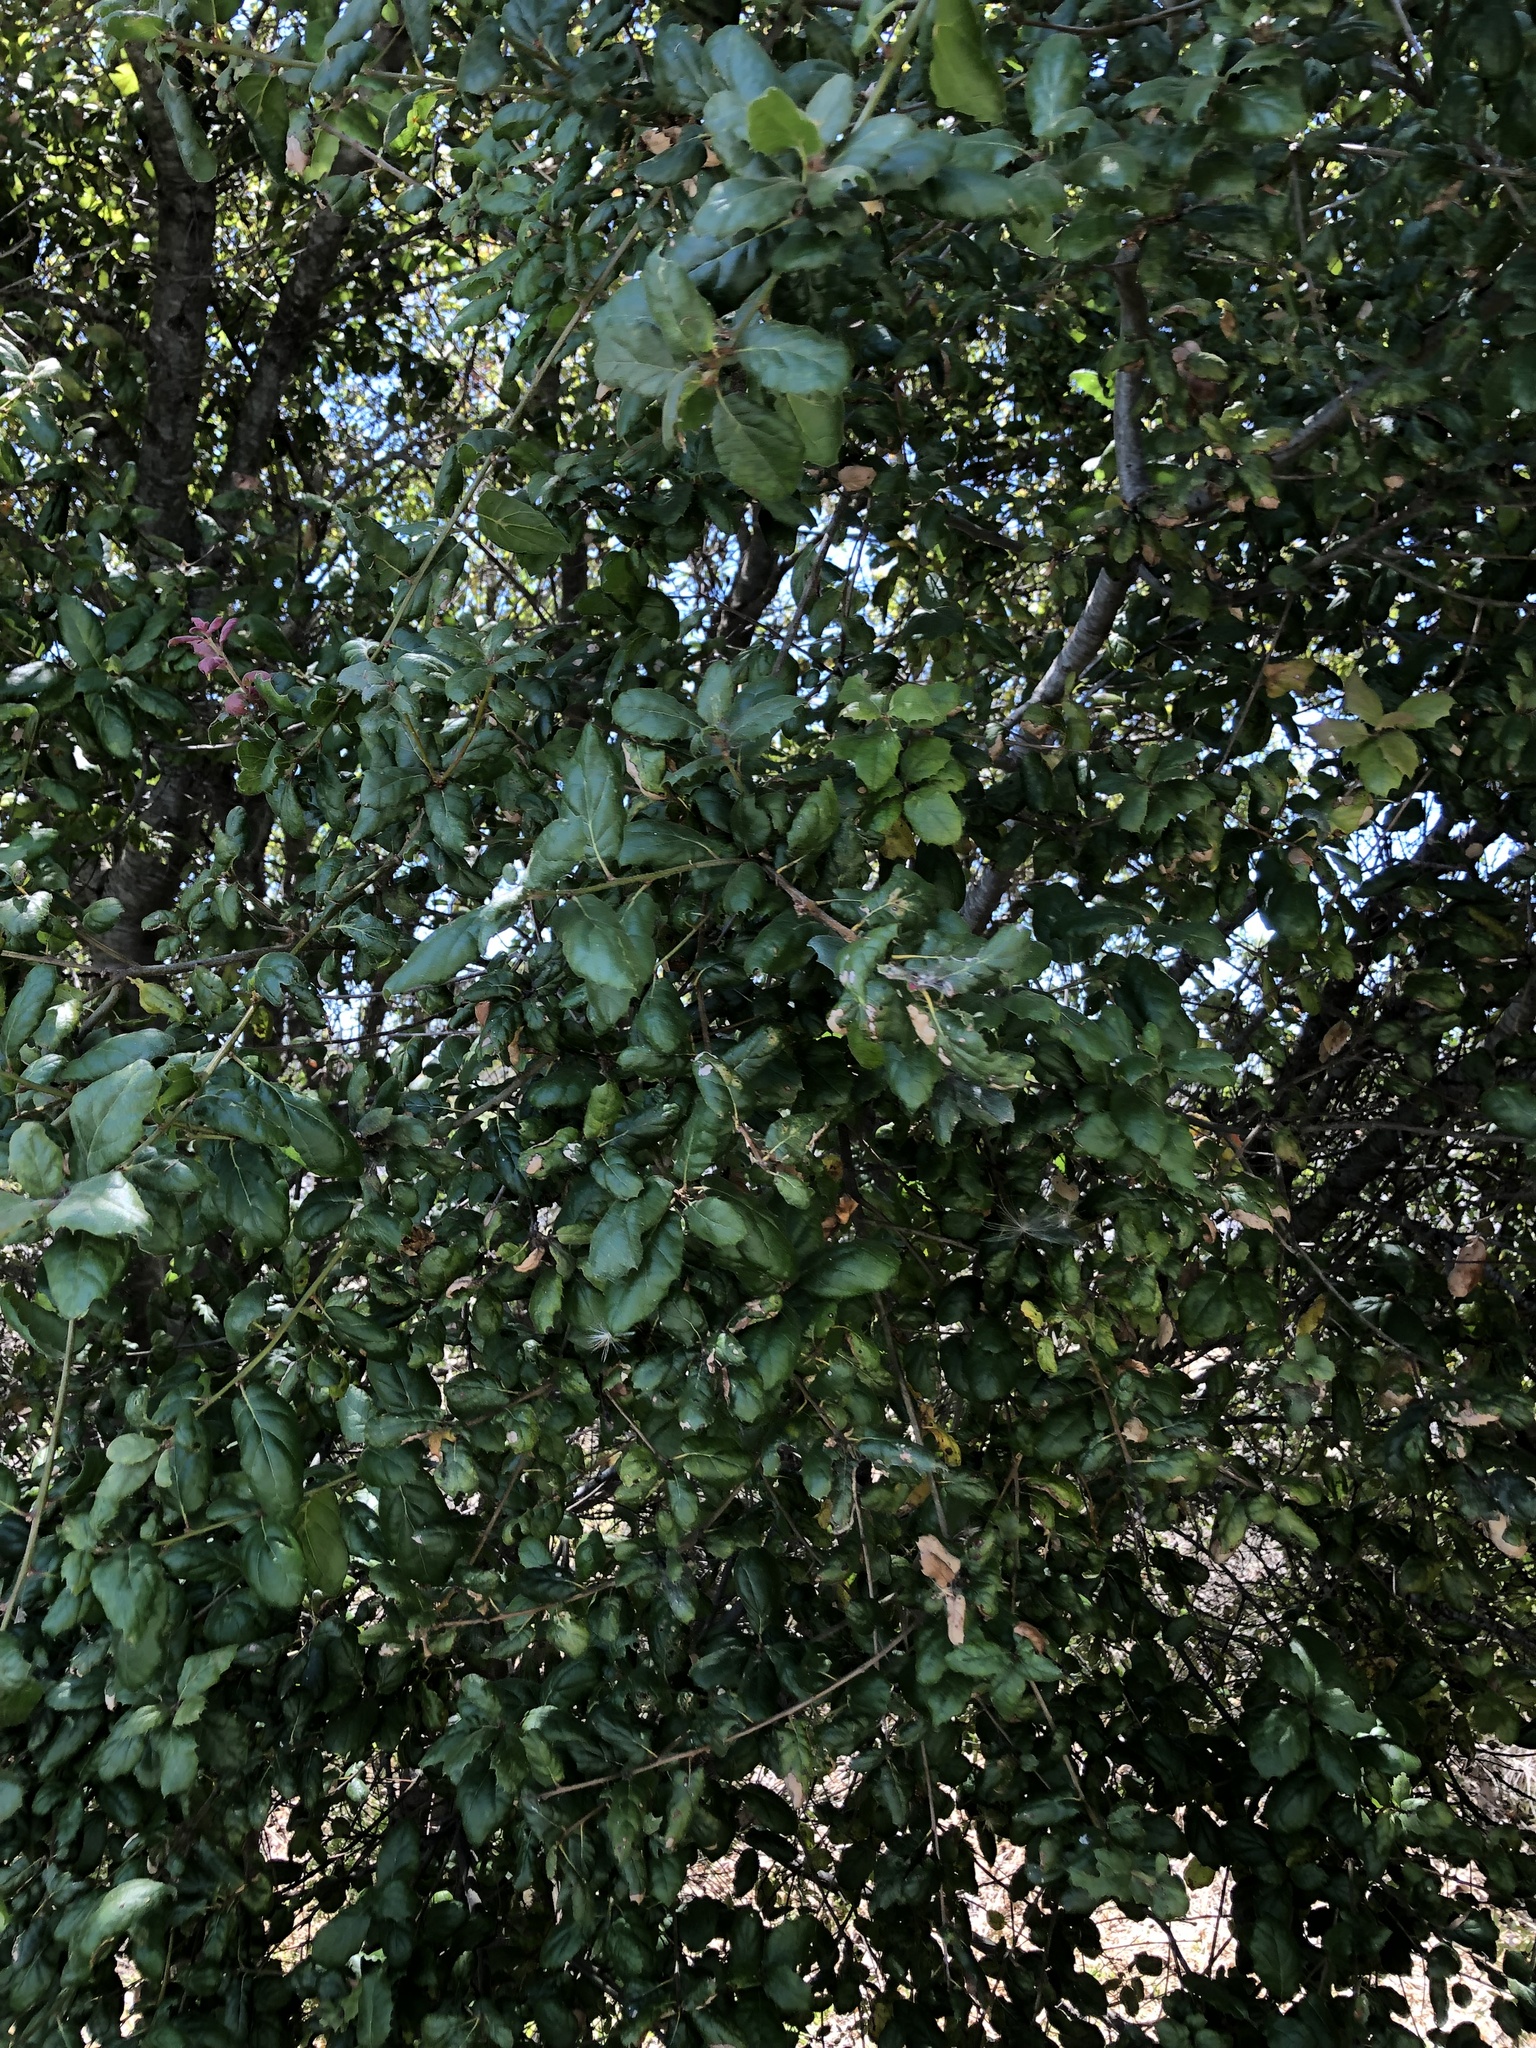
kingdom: Plantae
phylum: Tracheophyta
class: Magnoliopsida
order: Fagales
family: Fagaceae
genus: Quercus
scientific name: Quercus agrifolia
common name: California live oak
